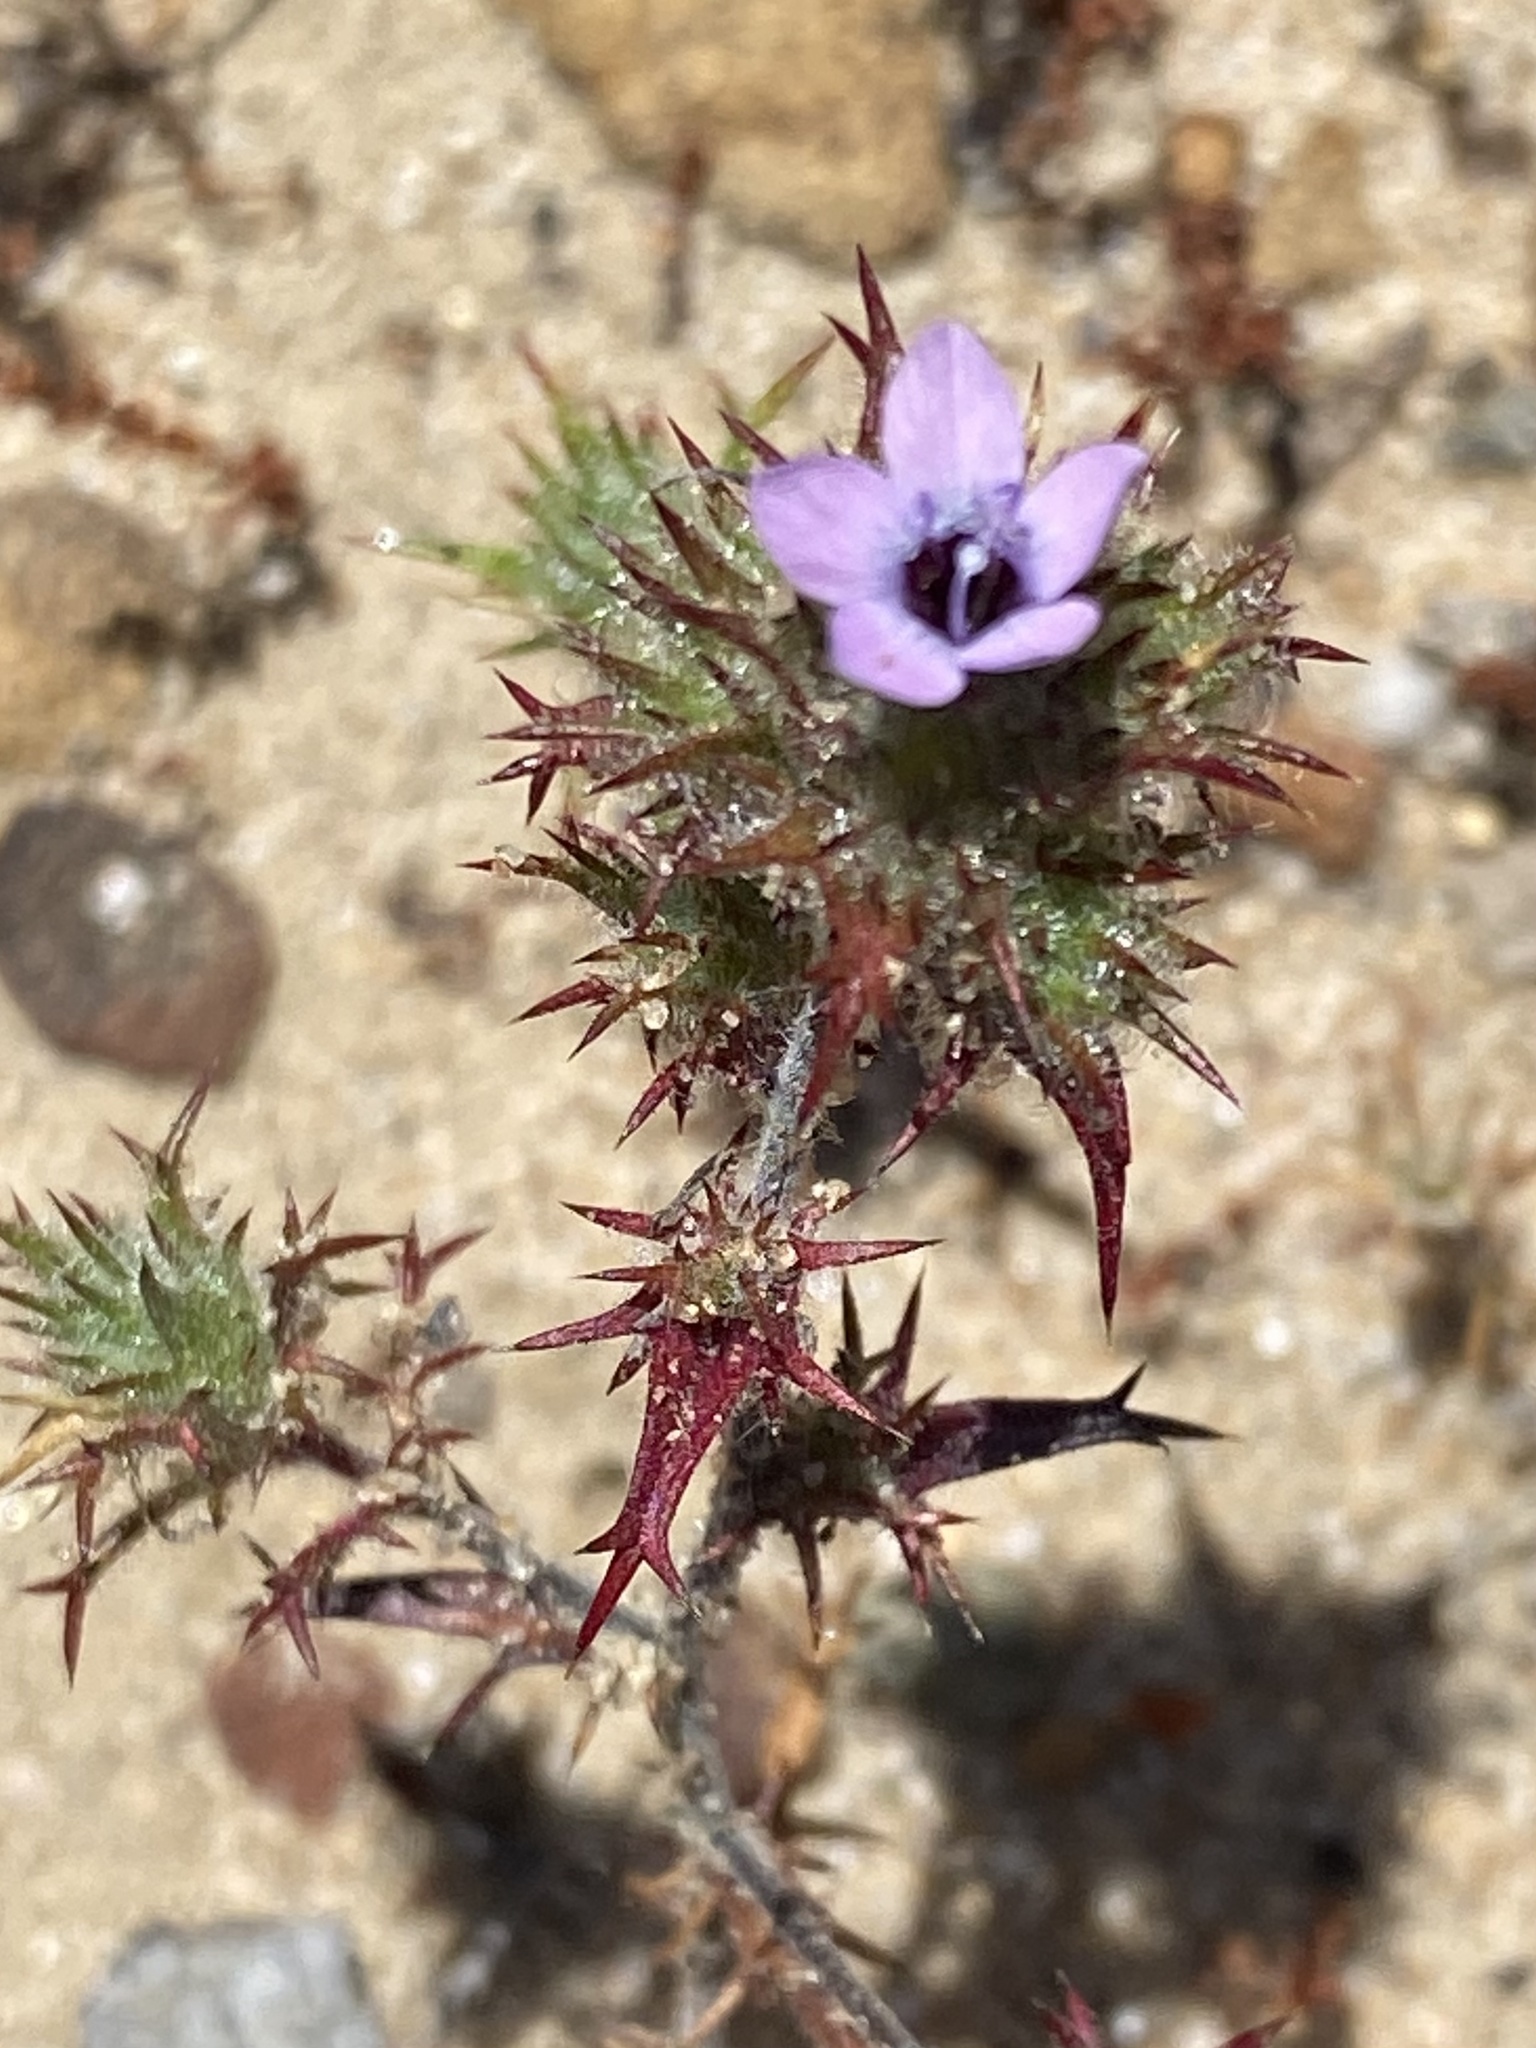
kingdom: Plantae
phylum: Tracheophyta
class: Magnoliopsida
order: Ericales
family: Polemoniaceae
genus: Navarretia
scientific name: Navarretia hamata
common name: Hooked navarretia
